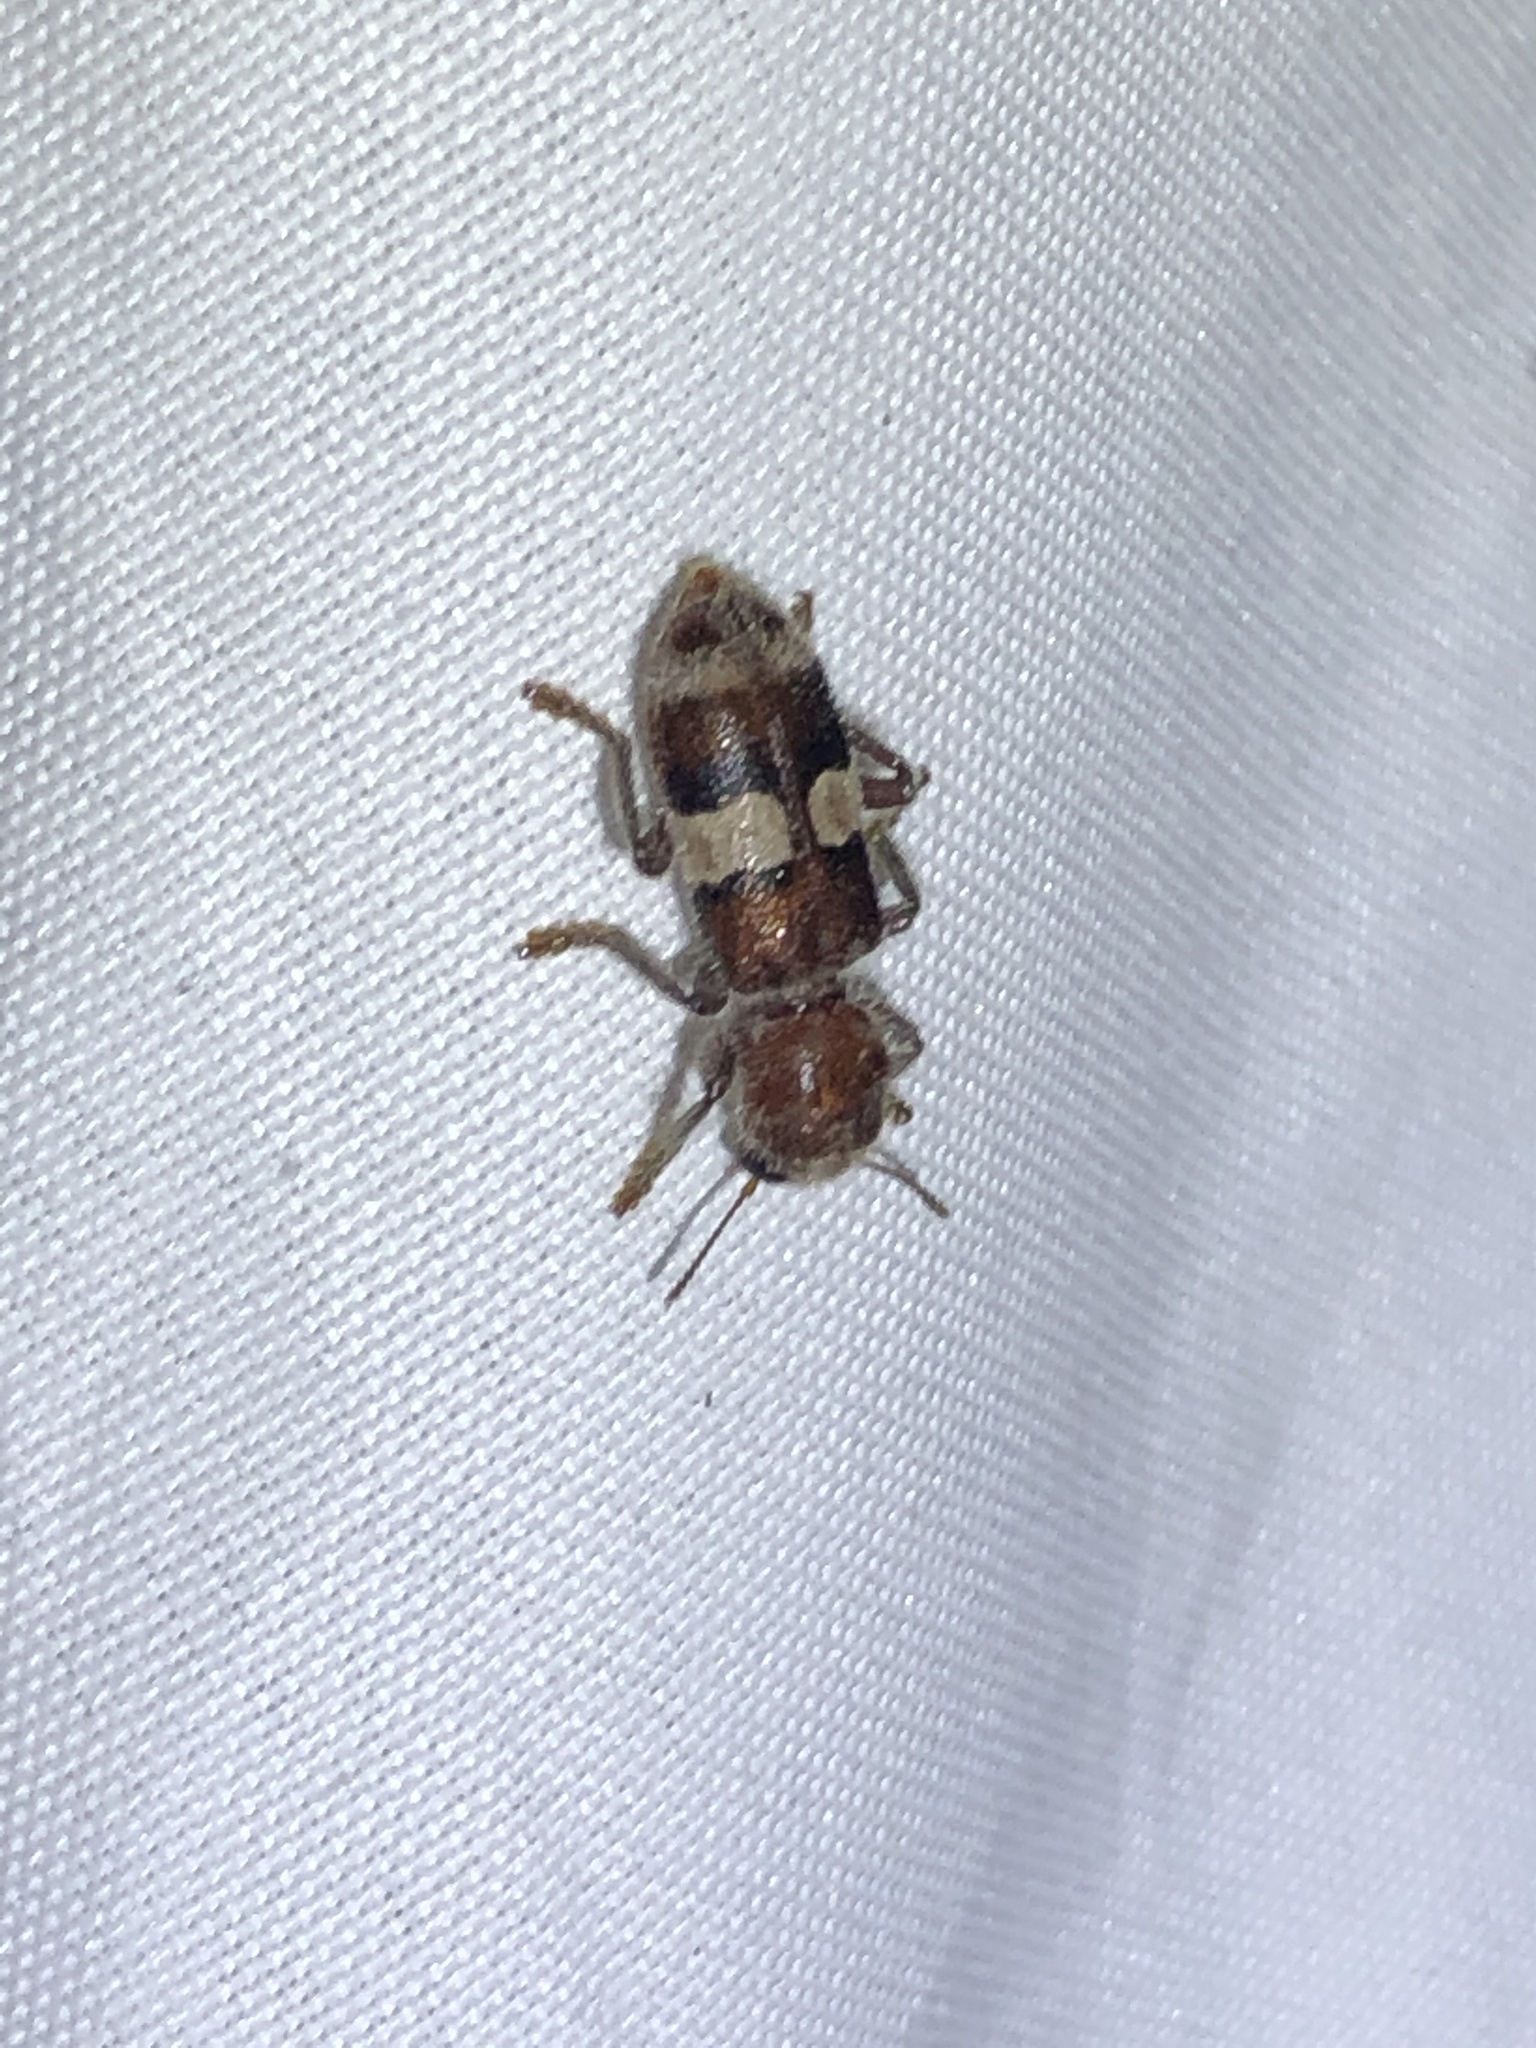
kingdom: Animalia
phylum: Arthropoda
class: Insecta
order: Coleoptera
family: Cleridae
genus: Enoclerus
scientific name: Enoclerus quadrisignatus
